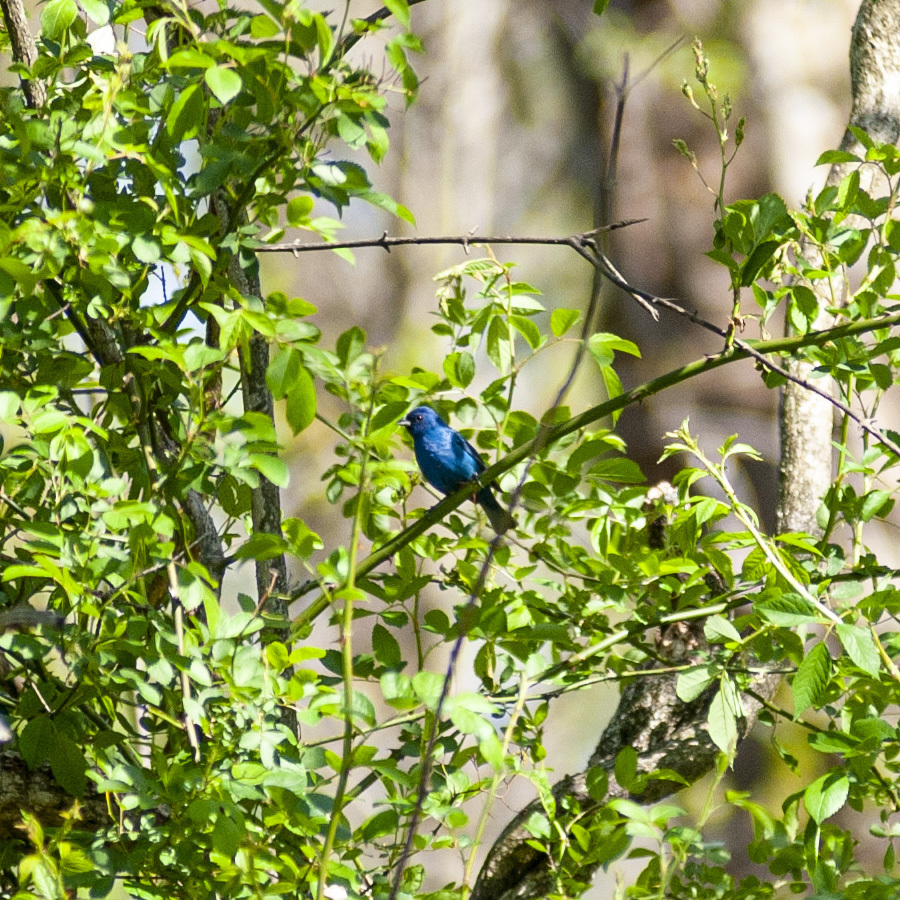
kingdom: Animalia
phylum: Chordata
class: Aves
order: Passeriformes
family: Cardinalidae
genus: Passerina
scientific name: Passerina cyanea
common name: Indigo bunting
